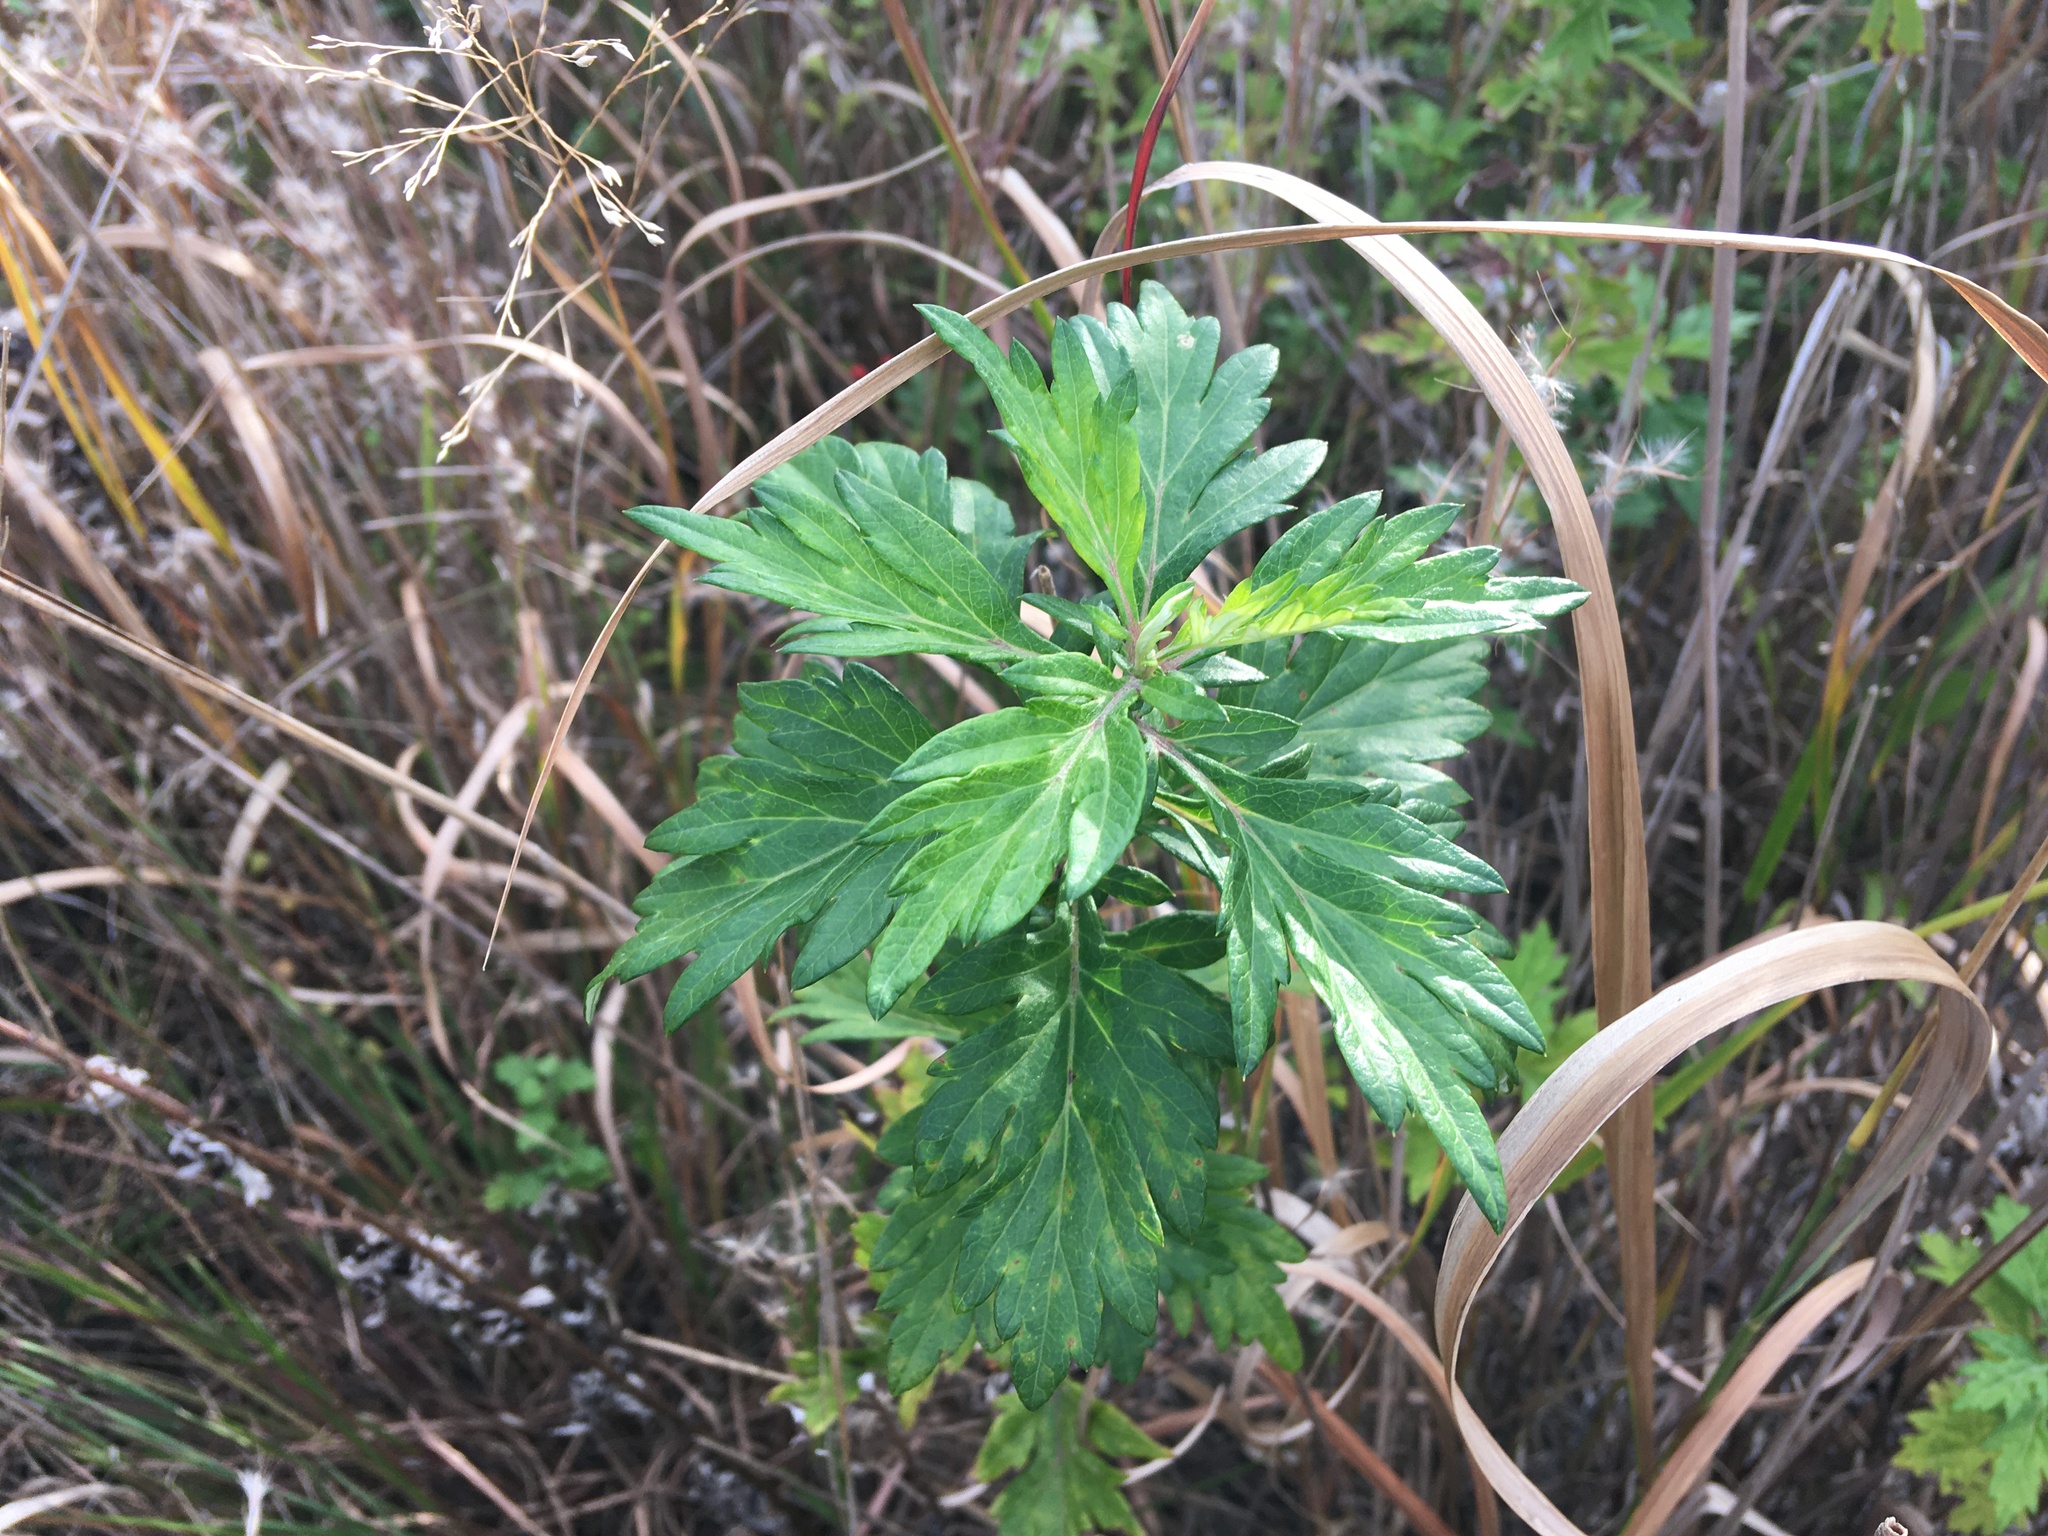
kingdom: Plantae
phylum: Tracheophyta
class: Magnoliopsida
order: Asterales
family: Asteraceae
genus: Artemisia
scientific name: Artemisia vulgaris
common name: Mugwort
